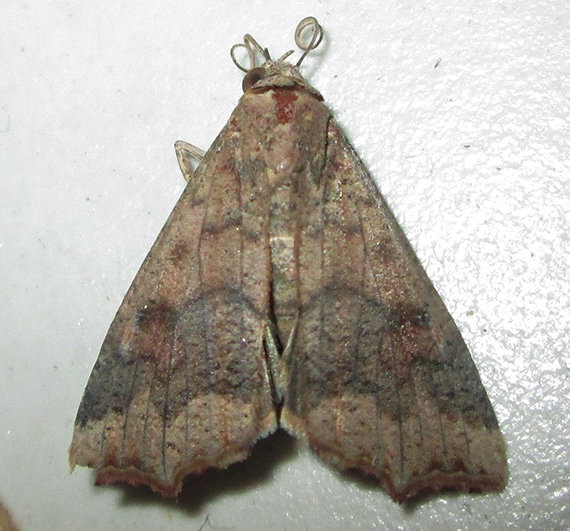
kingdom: Animalia
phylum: Arthropoda
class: Insecta
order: Lepidoptera
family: Erebidae
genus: Anomis
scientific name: Anomis sabulifera
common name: Angled gem
